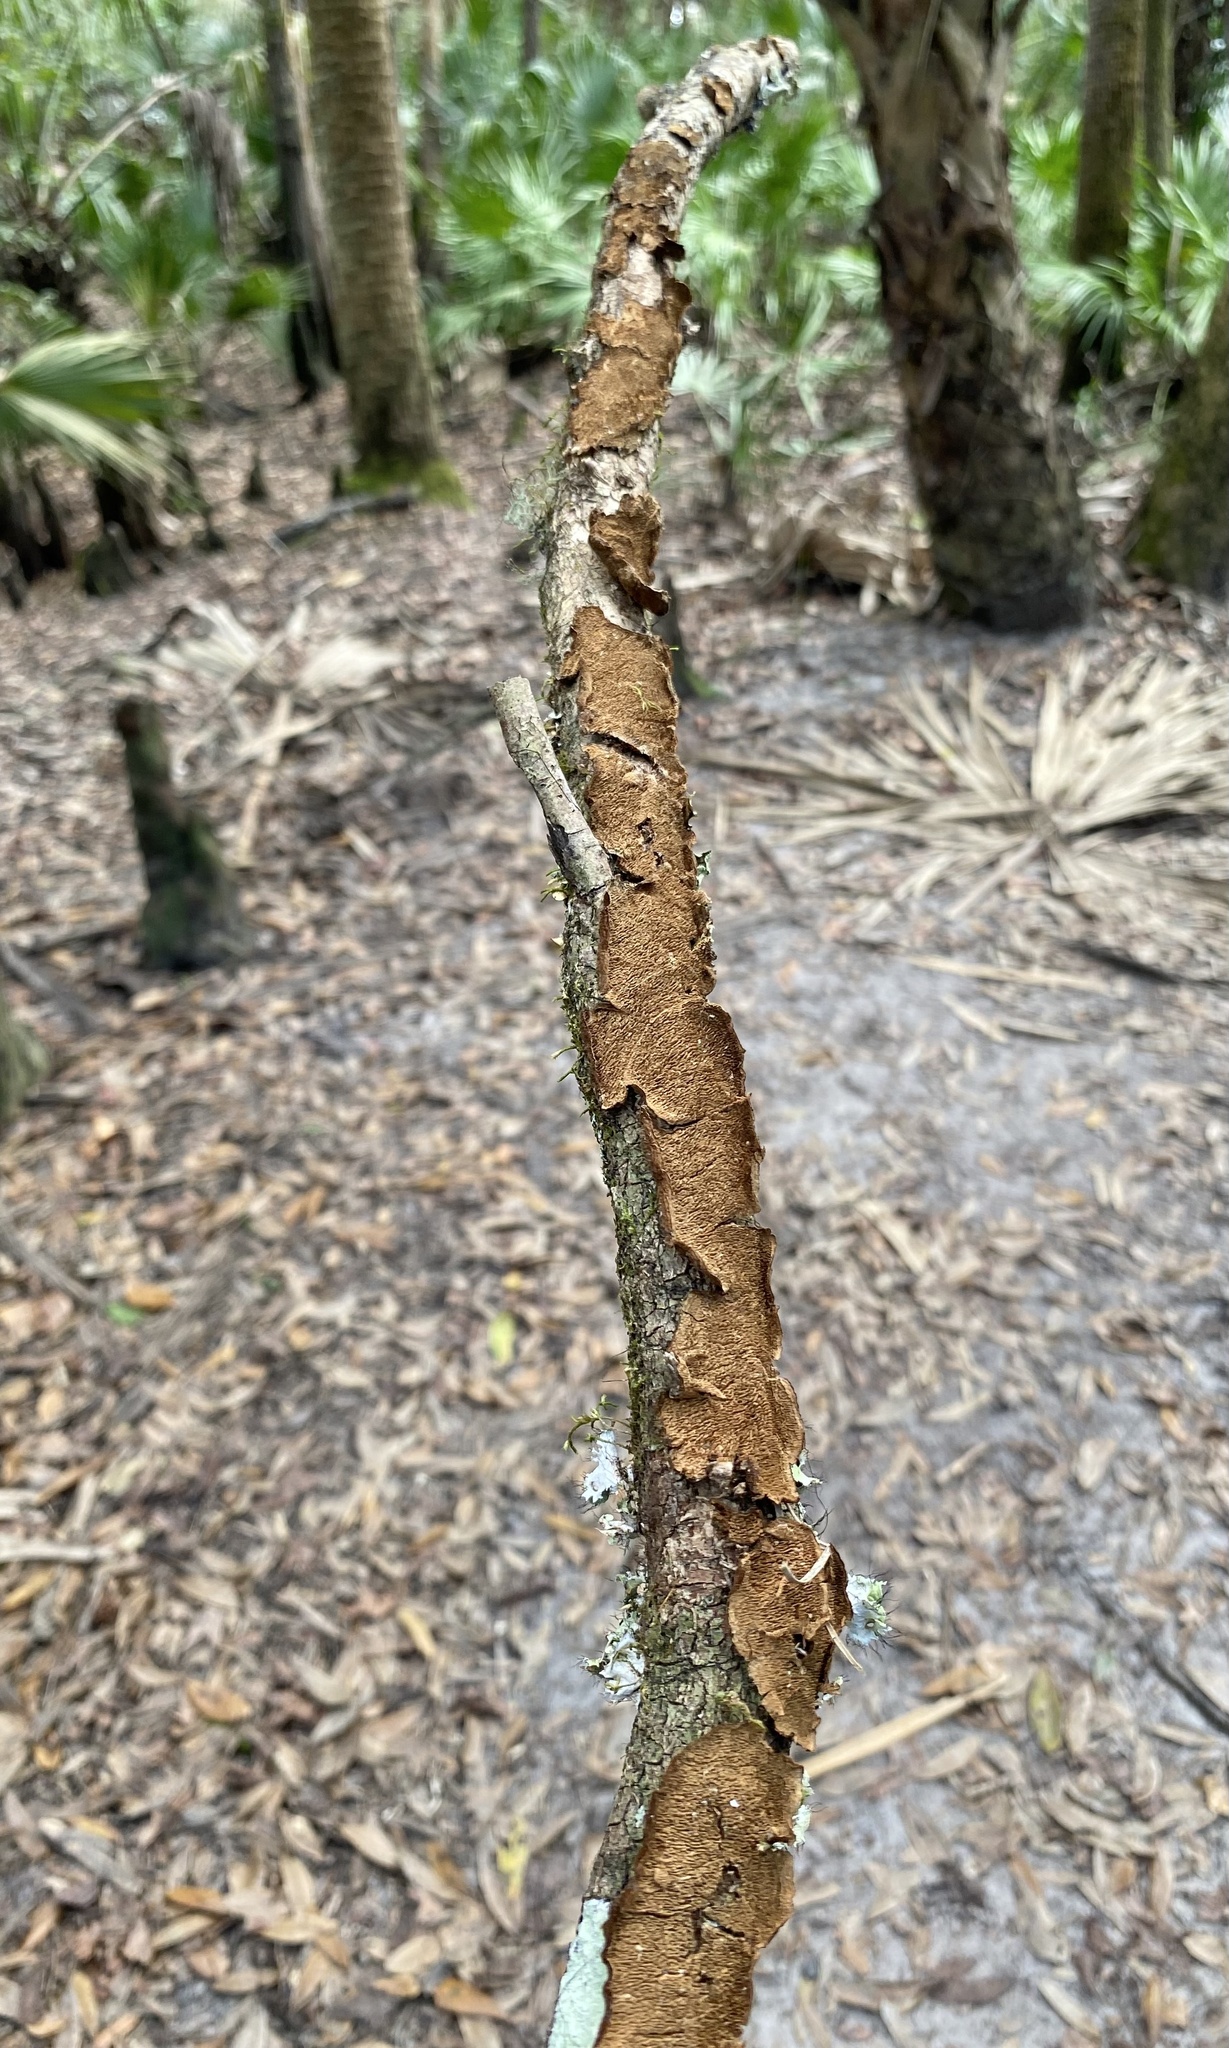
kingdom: Fungi
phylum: Basidiomycota
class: Agaricomycetes
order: Hymenochaetales
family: Hymenochaetaceae
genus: Hydnoporia
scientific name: Hydnoporia olivacea
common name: Brown-toothed crust fungus
